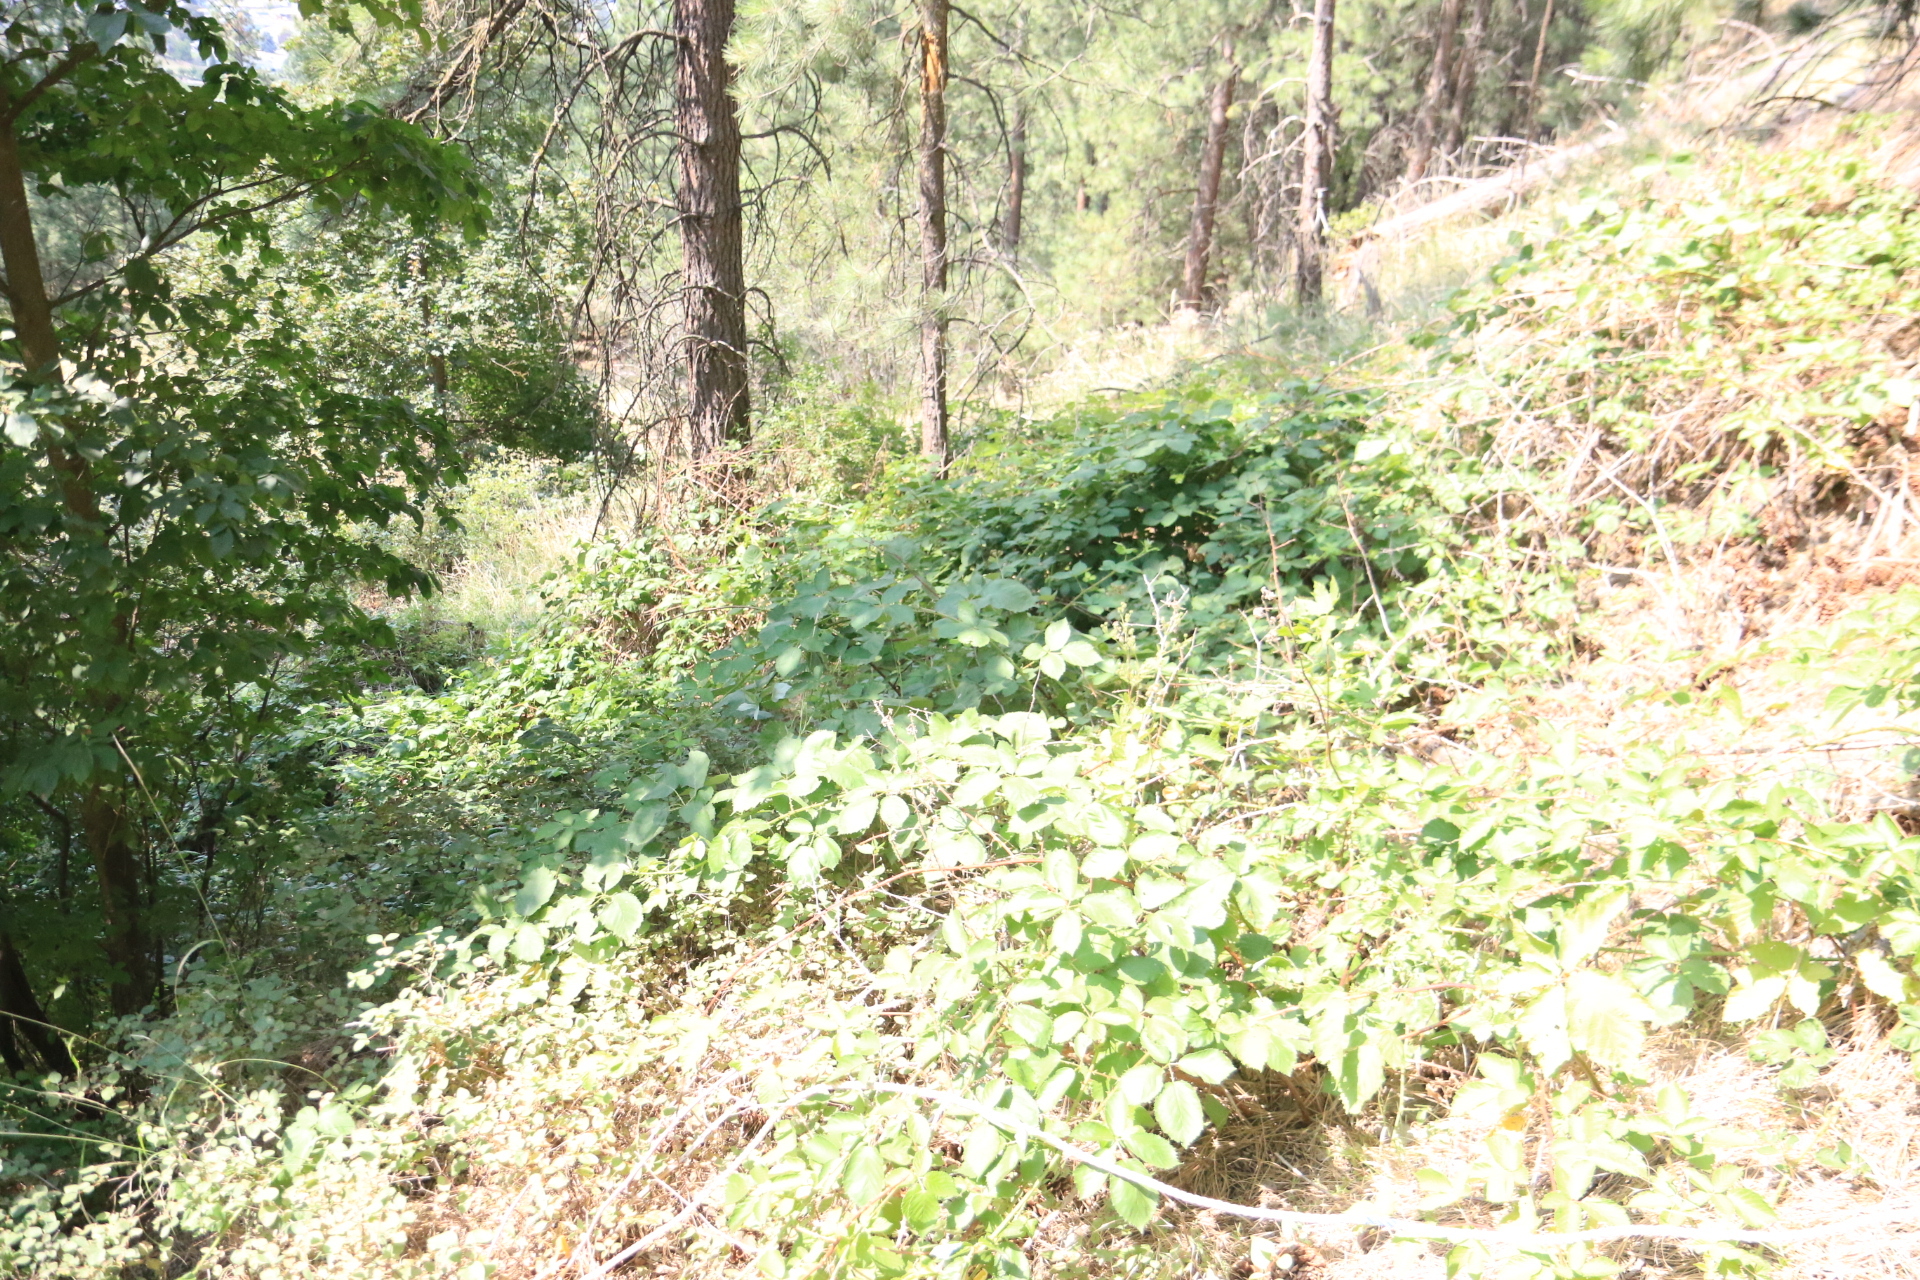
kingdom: Plantae
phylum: Tracheophyta
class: Magnoliopsida
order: Rosales
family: Rosaceae
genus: Rubus
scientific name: Rubus bifrons
